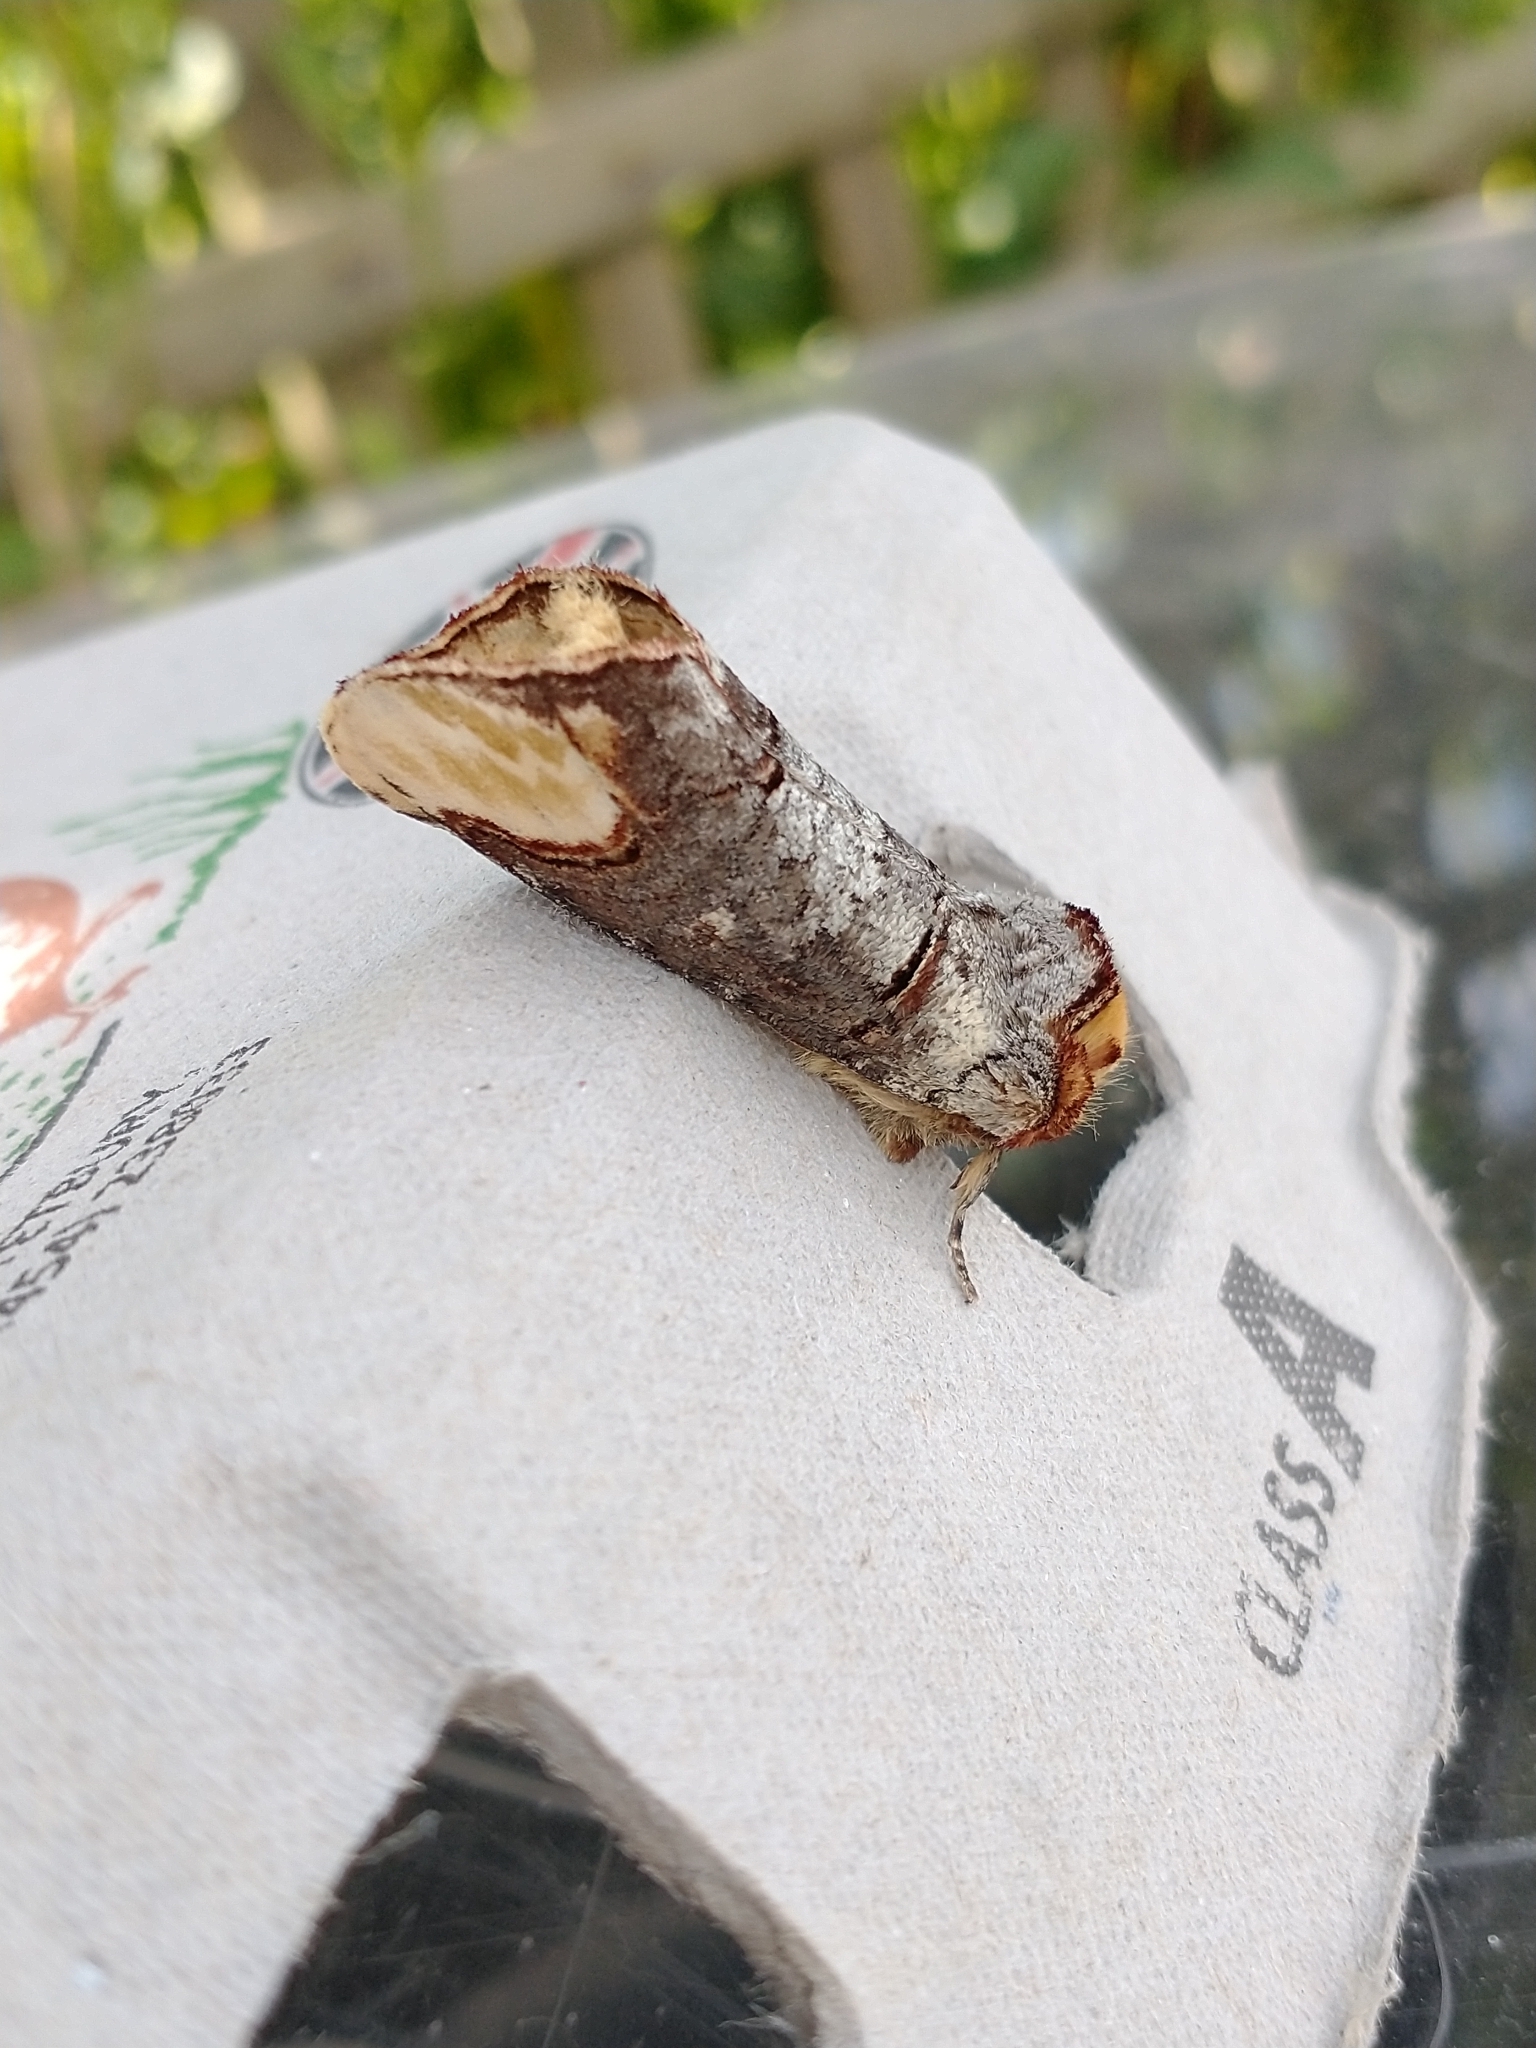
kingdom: Animalia
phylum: Arthropoda
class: Insecta
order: Lepidoptera
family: Notodontidae
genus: Phalera
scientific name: Phalera bucephala
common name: Buff-tip
